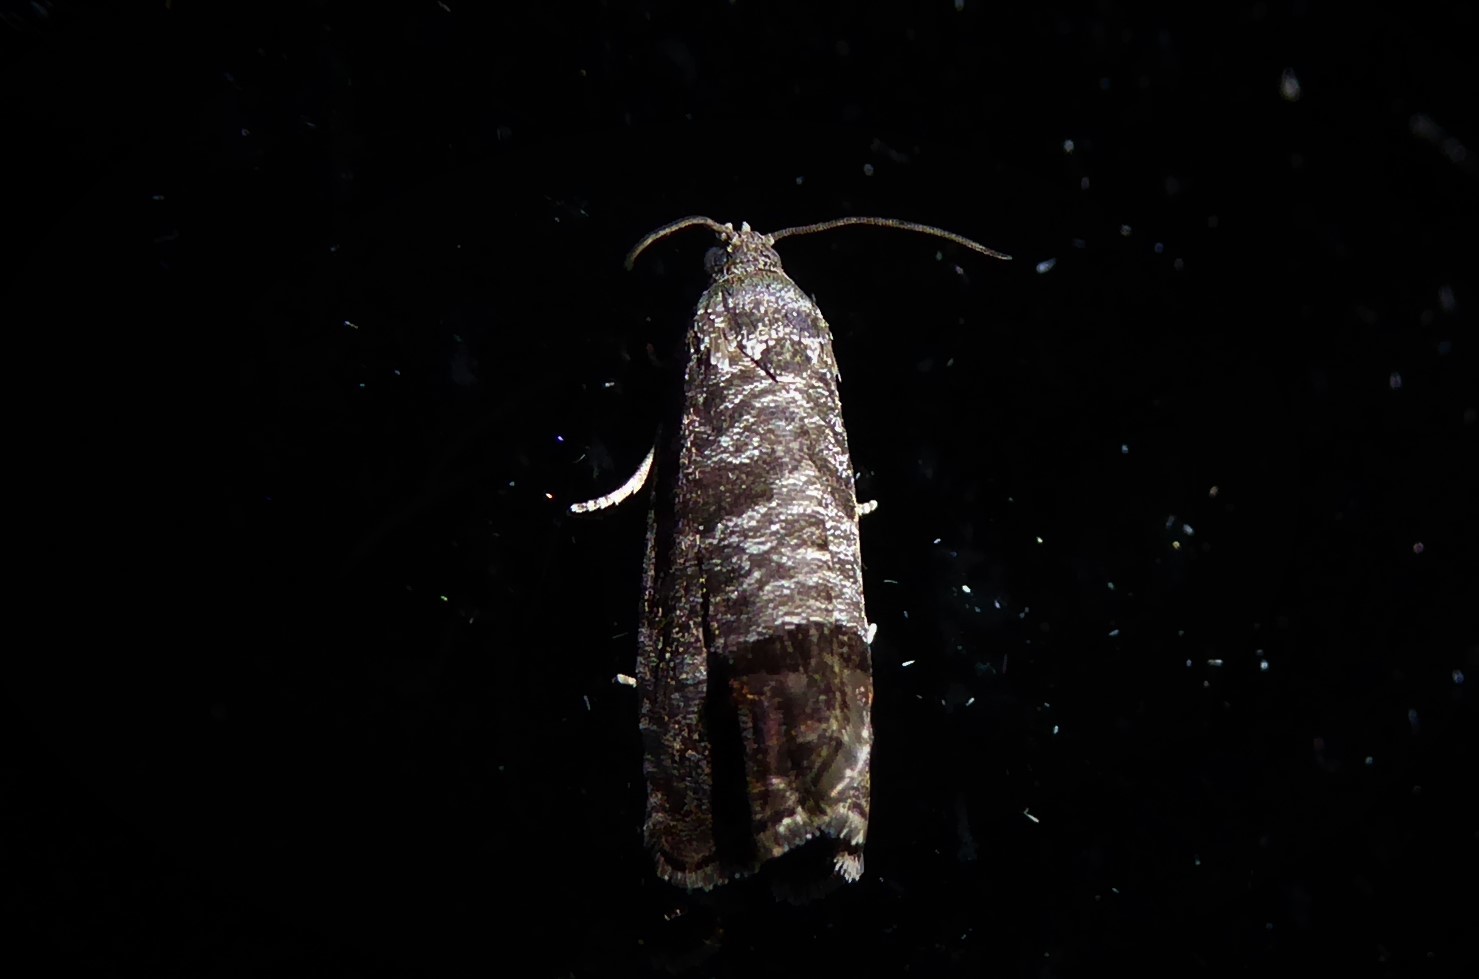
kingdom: Animalia
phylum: Arthropoda
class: Insecta
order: Lepidoptera
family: Tortricidae
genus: Cydia
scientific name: Cydia pomonella
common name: Codling moth
